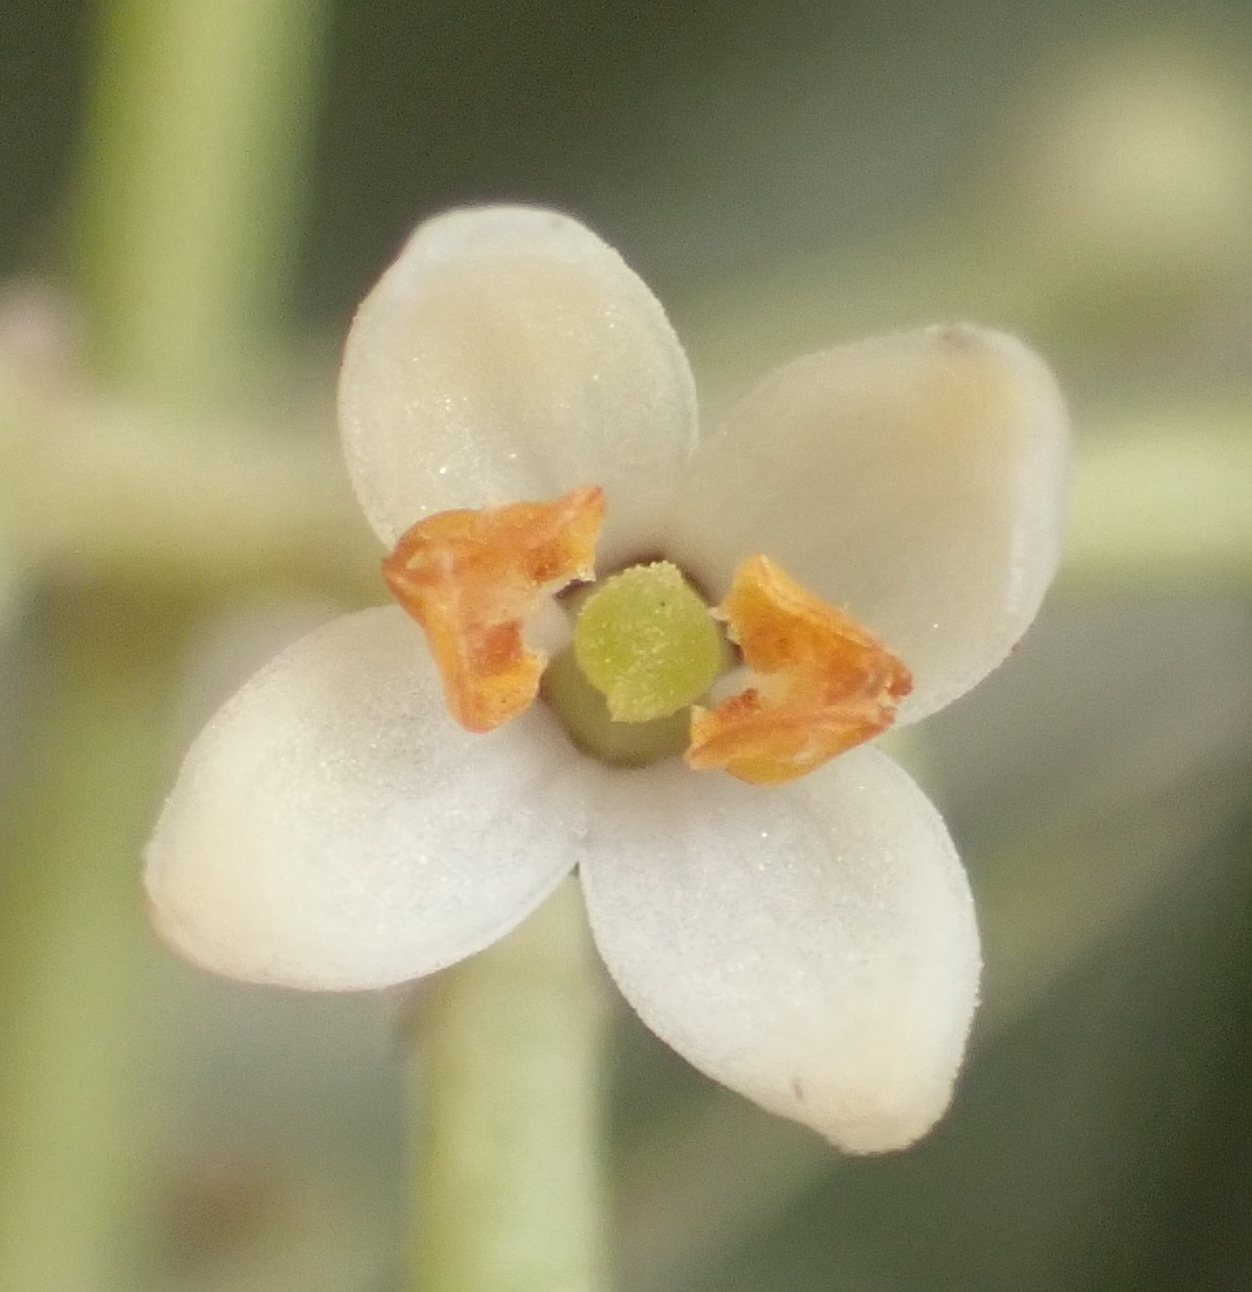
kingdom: Plantae
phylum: Tracheophyta
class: Magnoliopsida
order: Lamiales
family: Oleaceae
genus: Olea
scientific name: Olea exasperata
